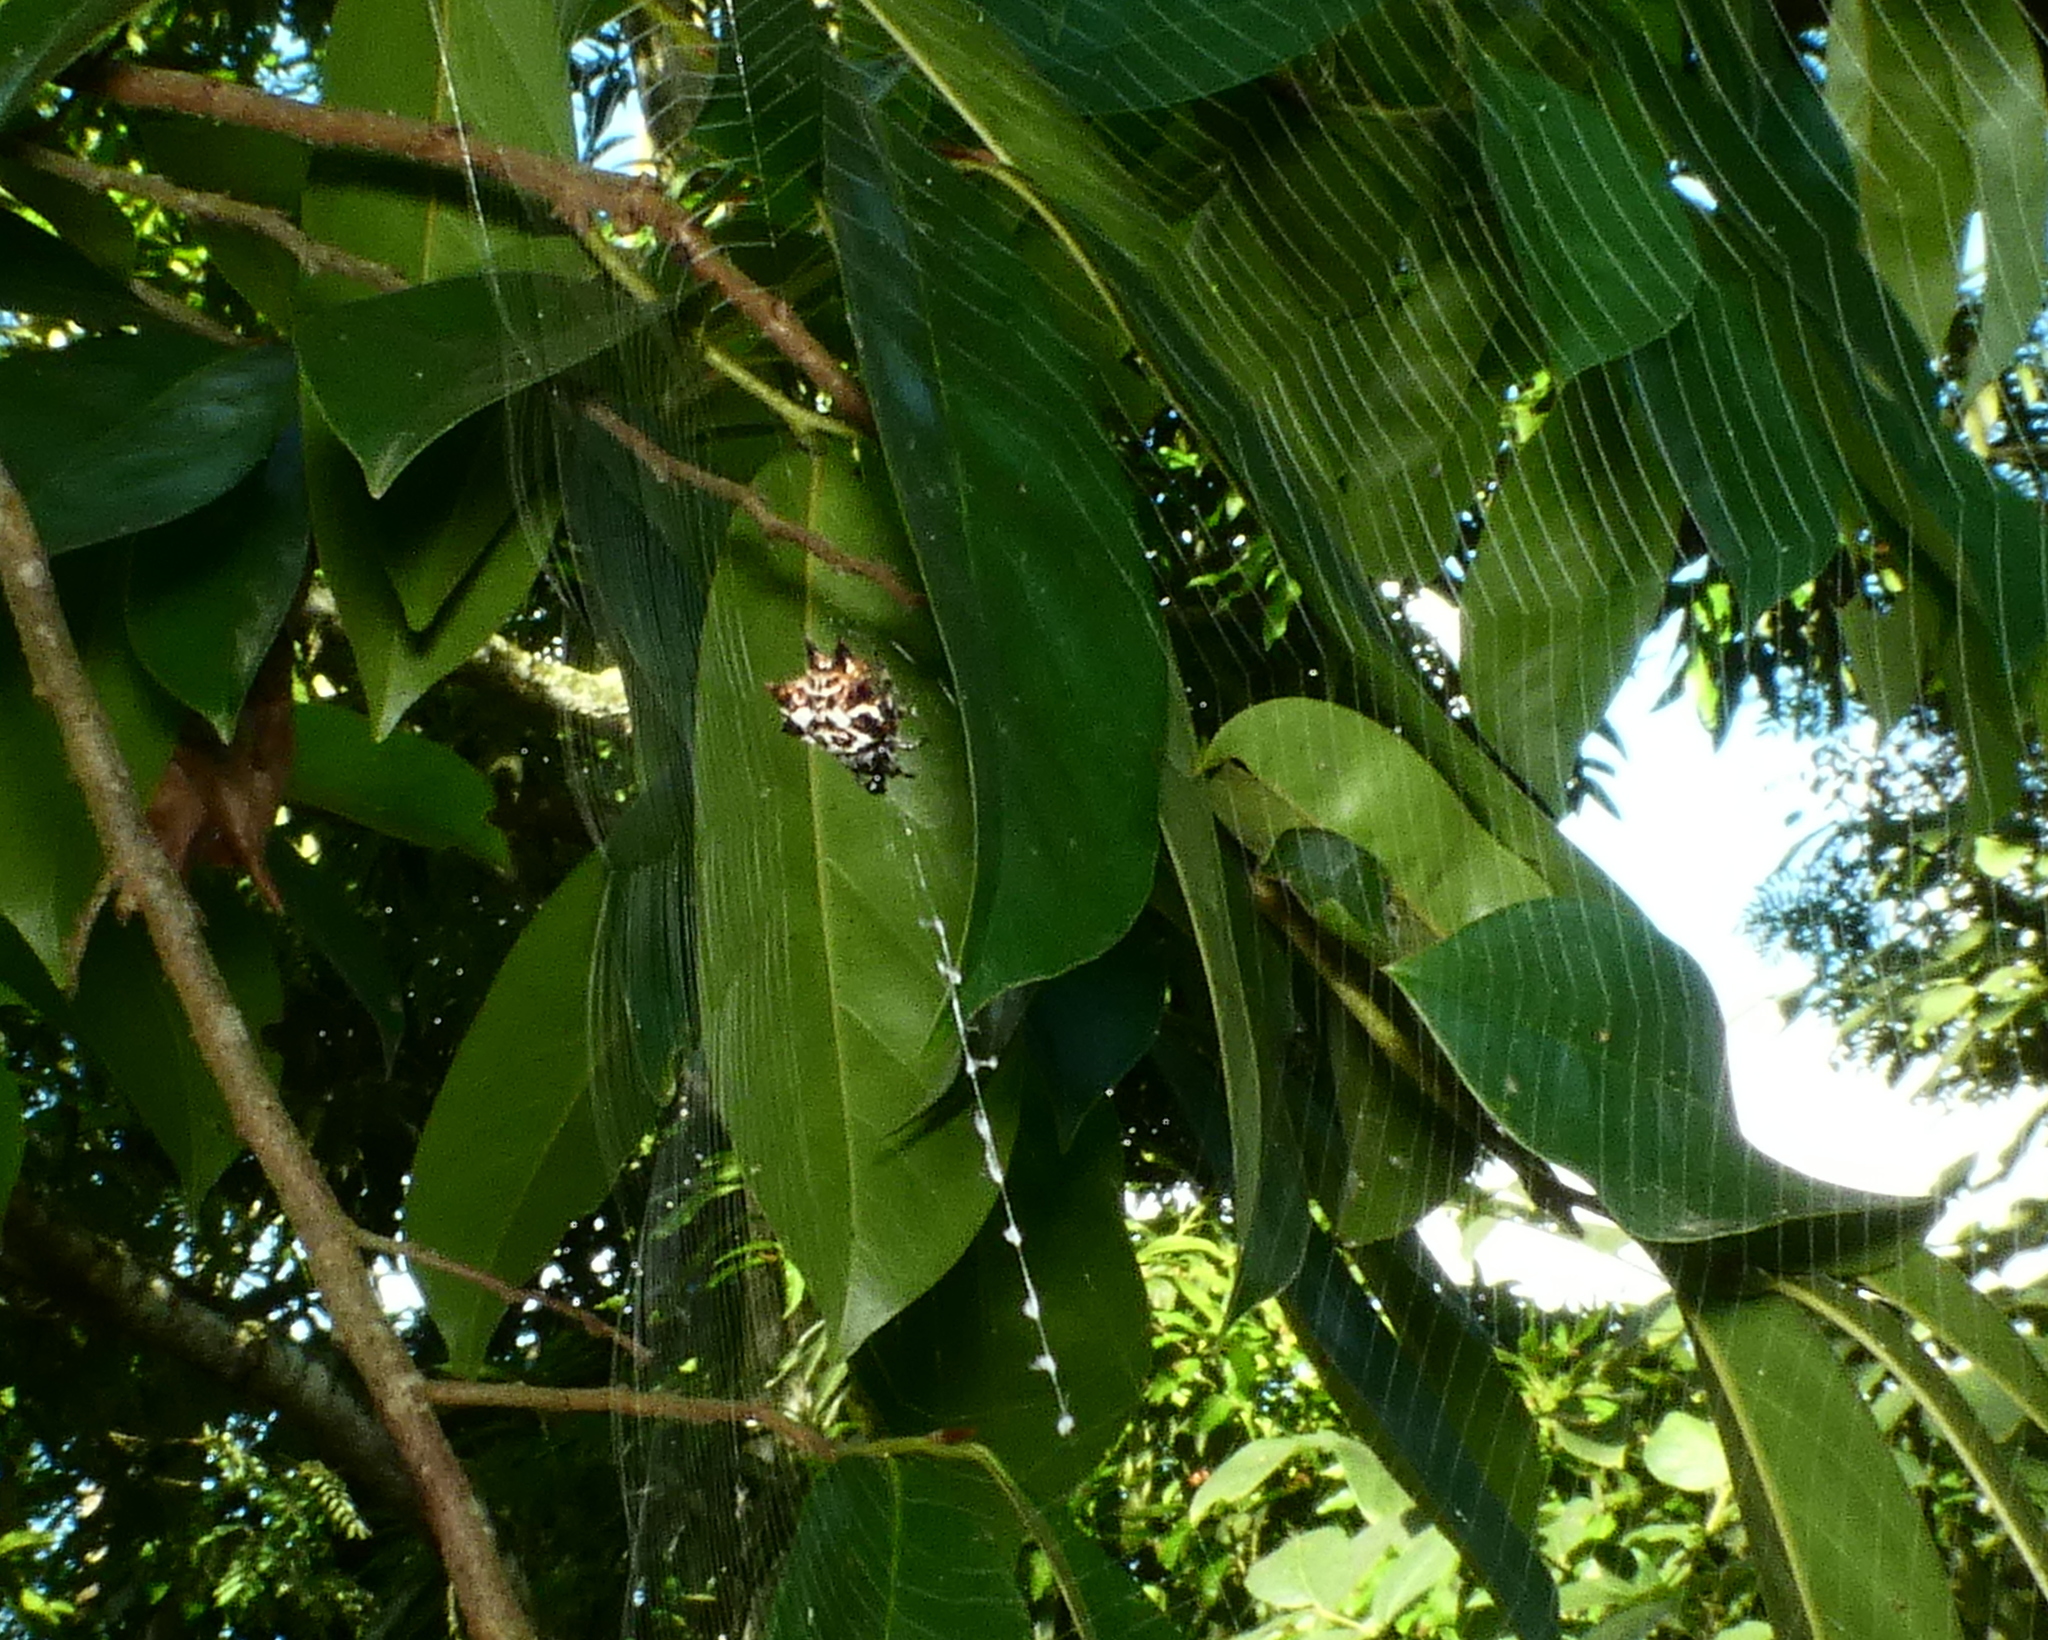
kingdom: Animalia
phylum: Arthropoda
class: Arachnida
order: Araneae
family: Araneidae
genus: Gasteracantha
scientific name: Gasteracantha cancriformis
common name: Orb weavers
